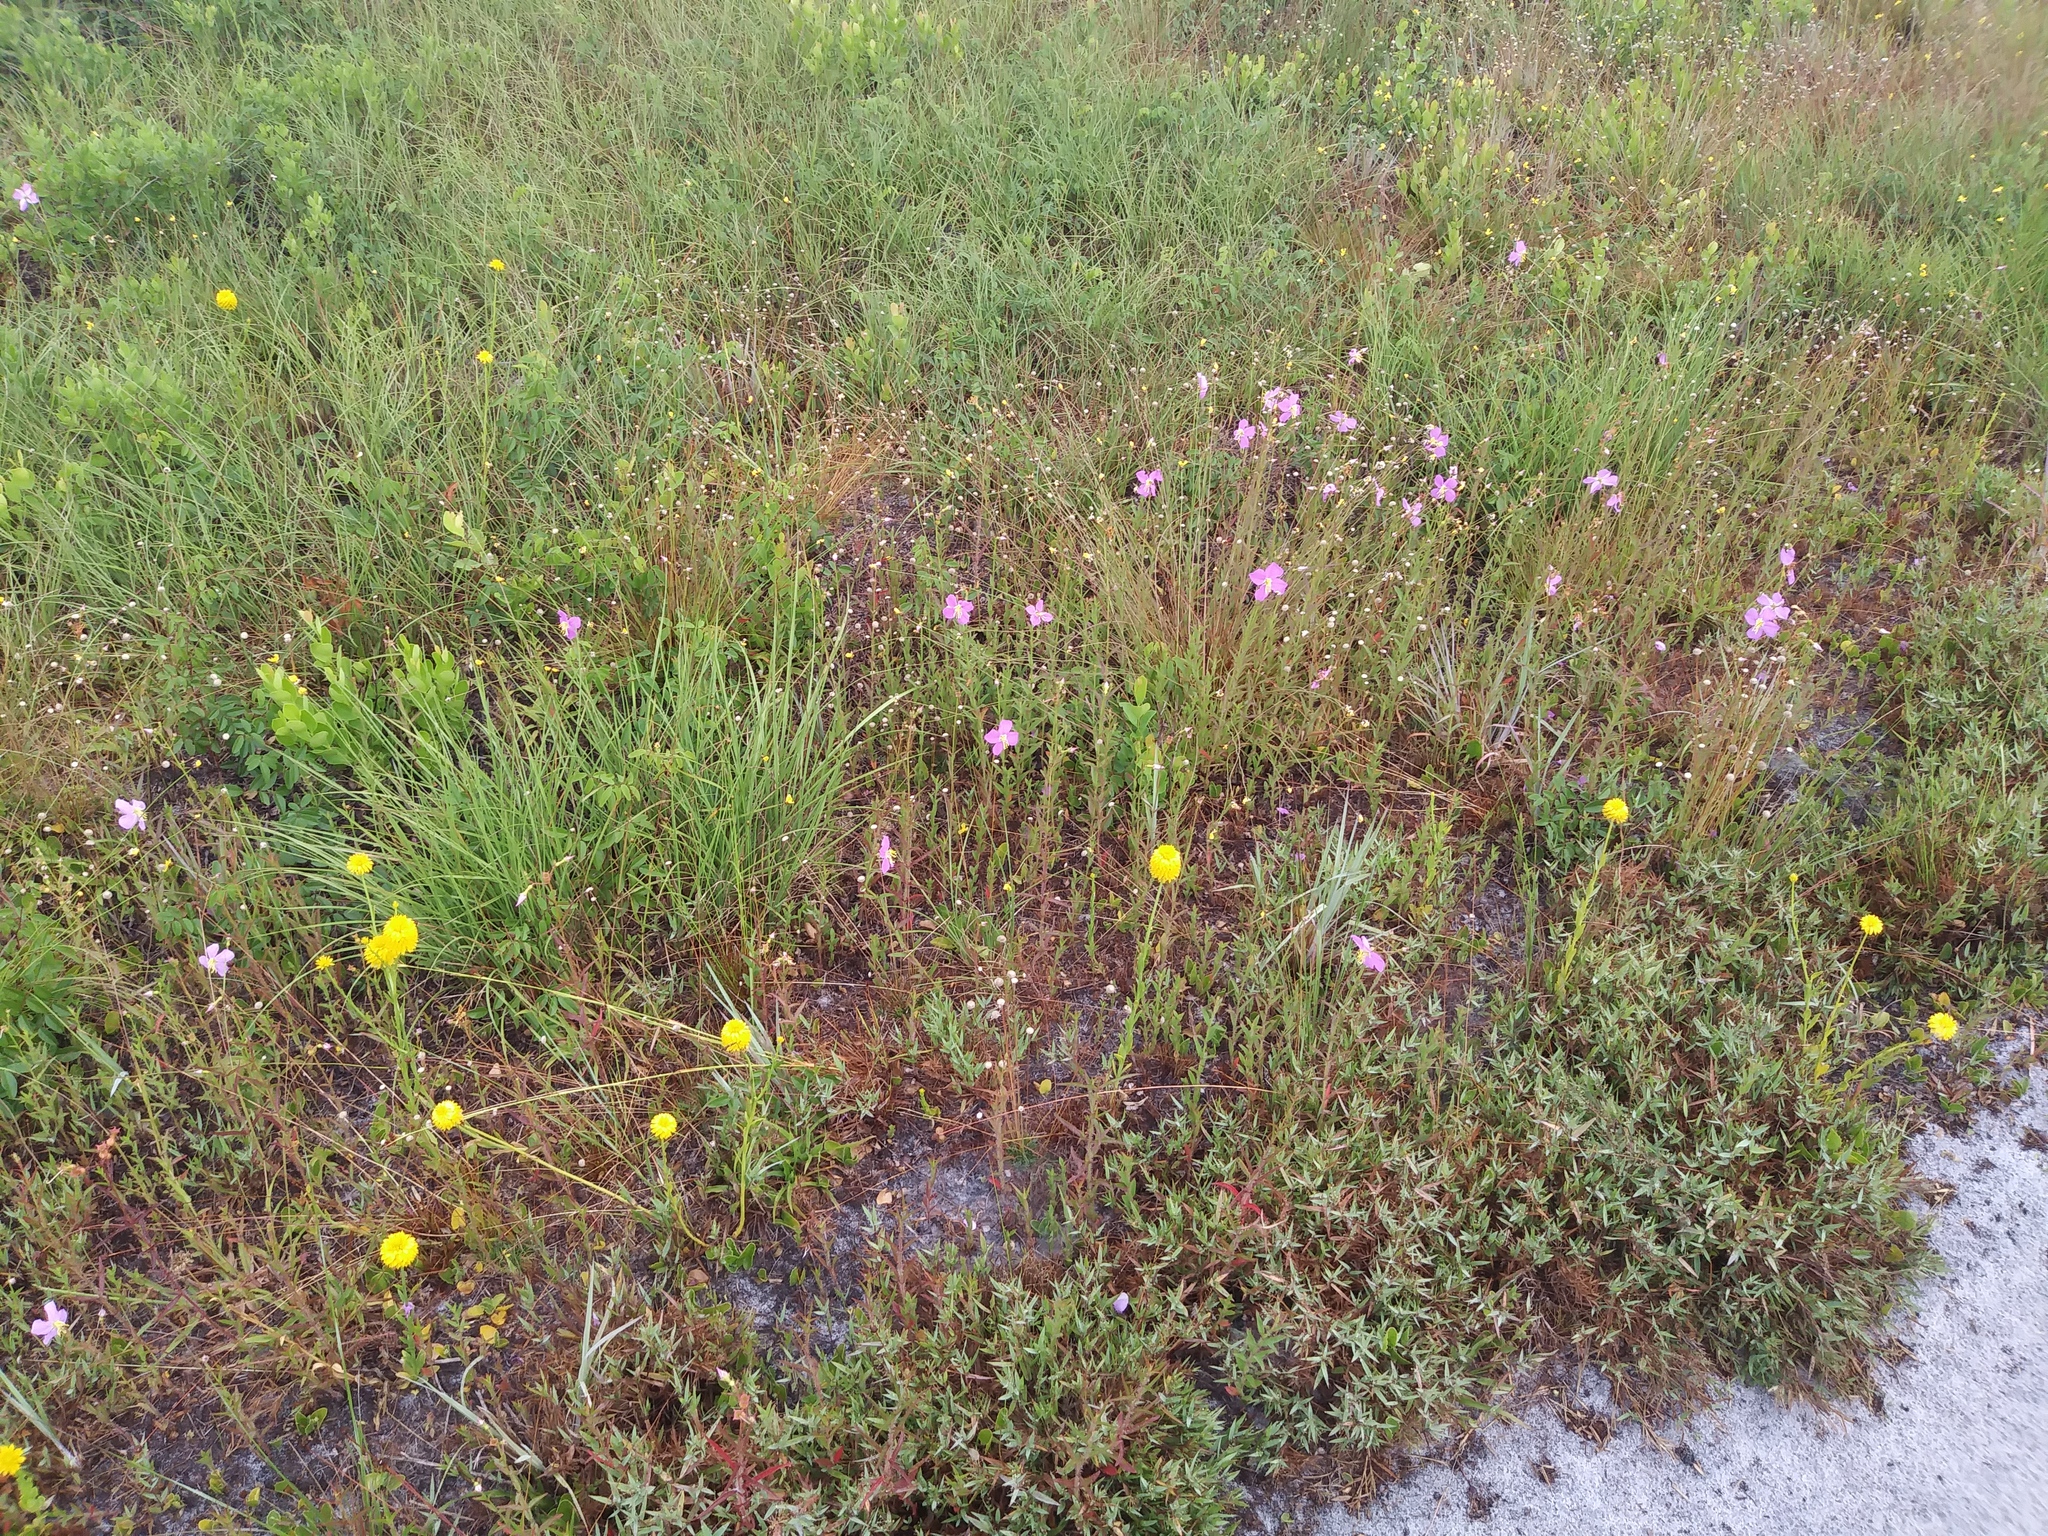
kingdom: Plantae
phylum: Tracheophyta
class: Magnoliopsida
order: Fabales
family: Polygalaceae
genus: Polygala
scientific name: Polygala rugelii
